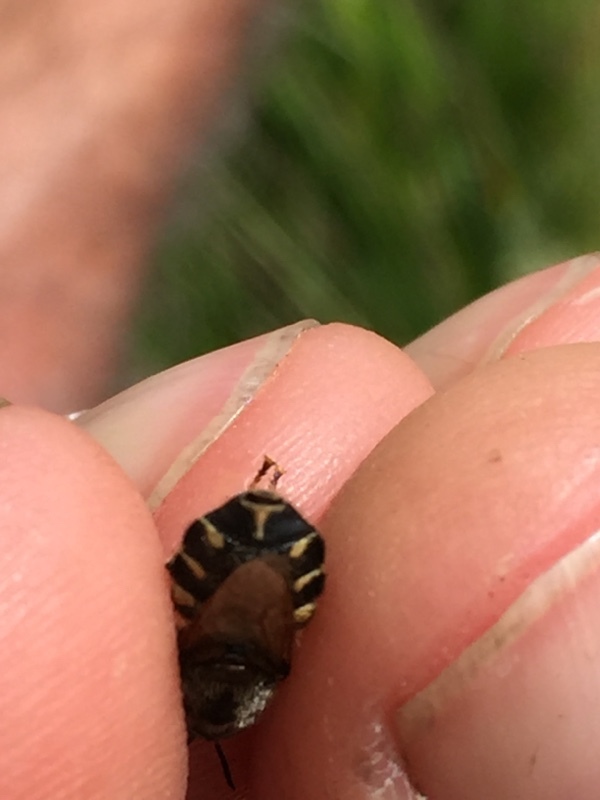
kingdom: Animalia
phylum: Arthropoda
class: Insecta
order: Diptera
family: Stratiomyidae
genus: Stratiomys
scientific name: Stratiomys singularior
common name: Flecked general
